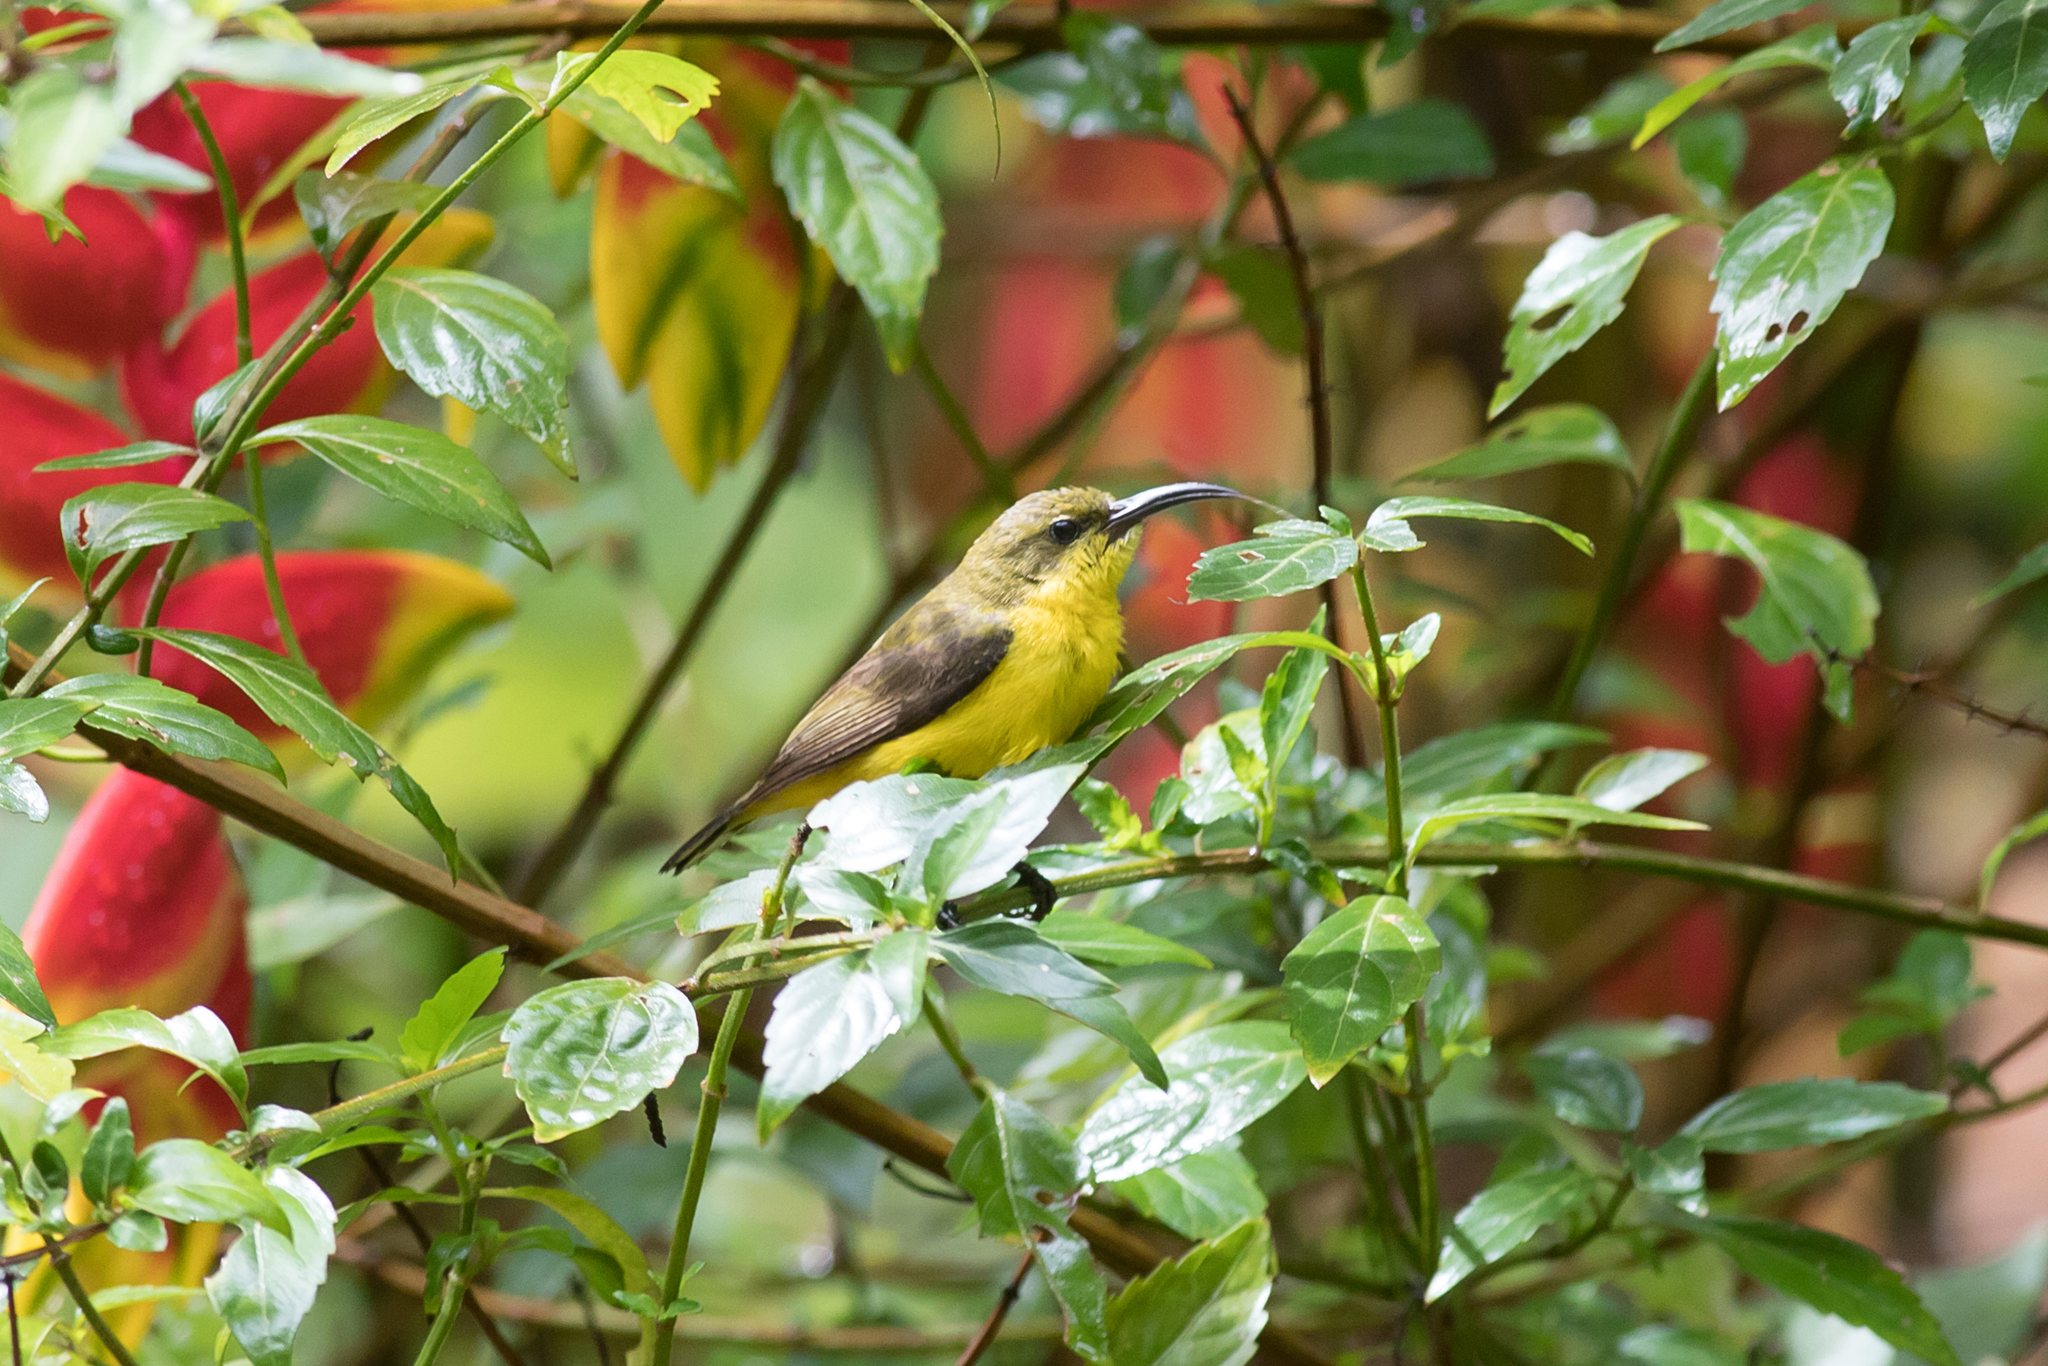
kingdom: Animalia
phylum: Chordata
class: Aves
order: Passeriformes
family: Nectariniidae
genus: Cinnyris
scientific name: Cinnyris
